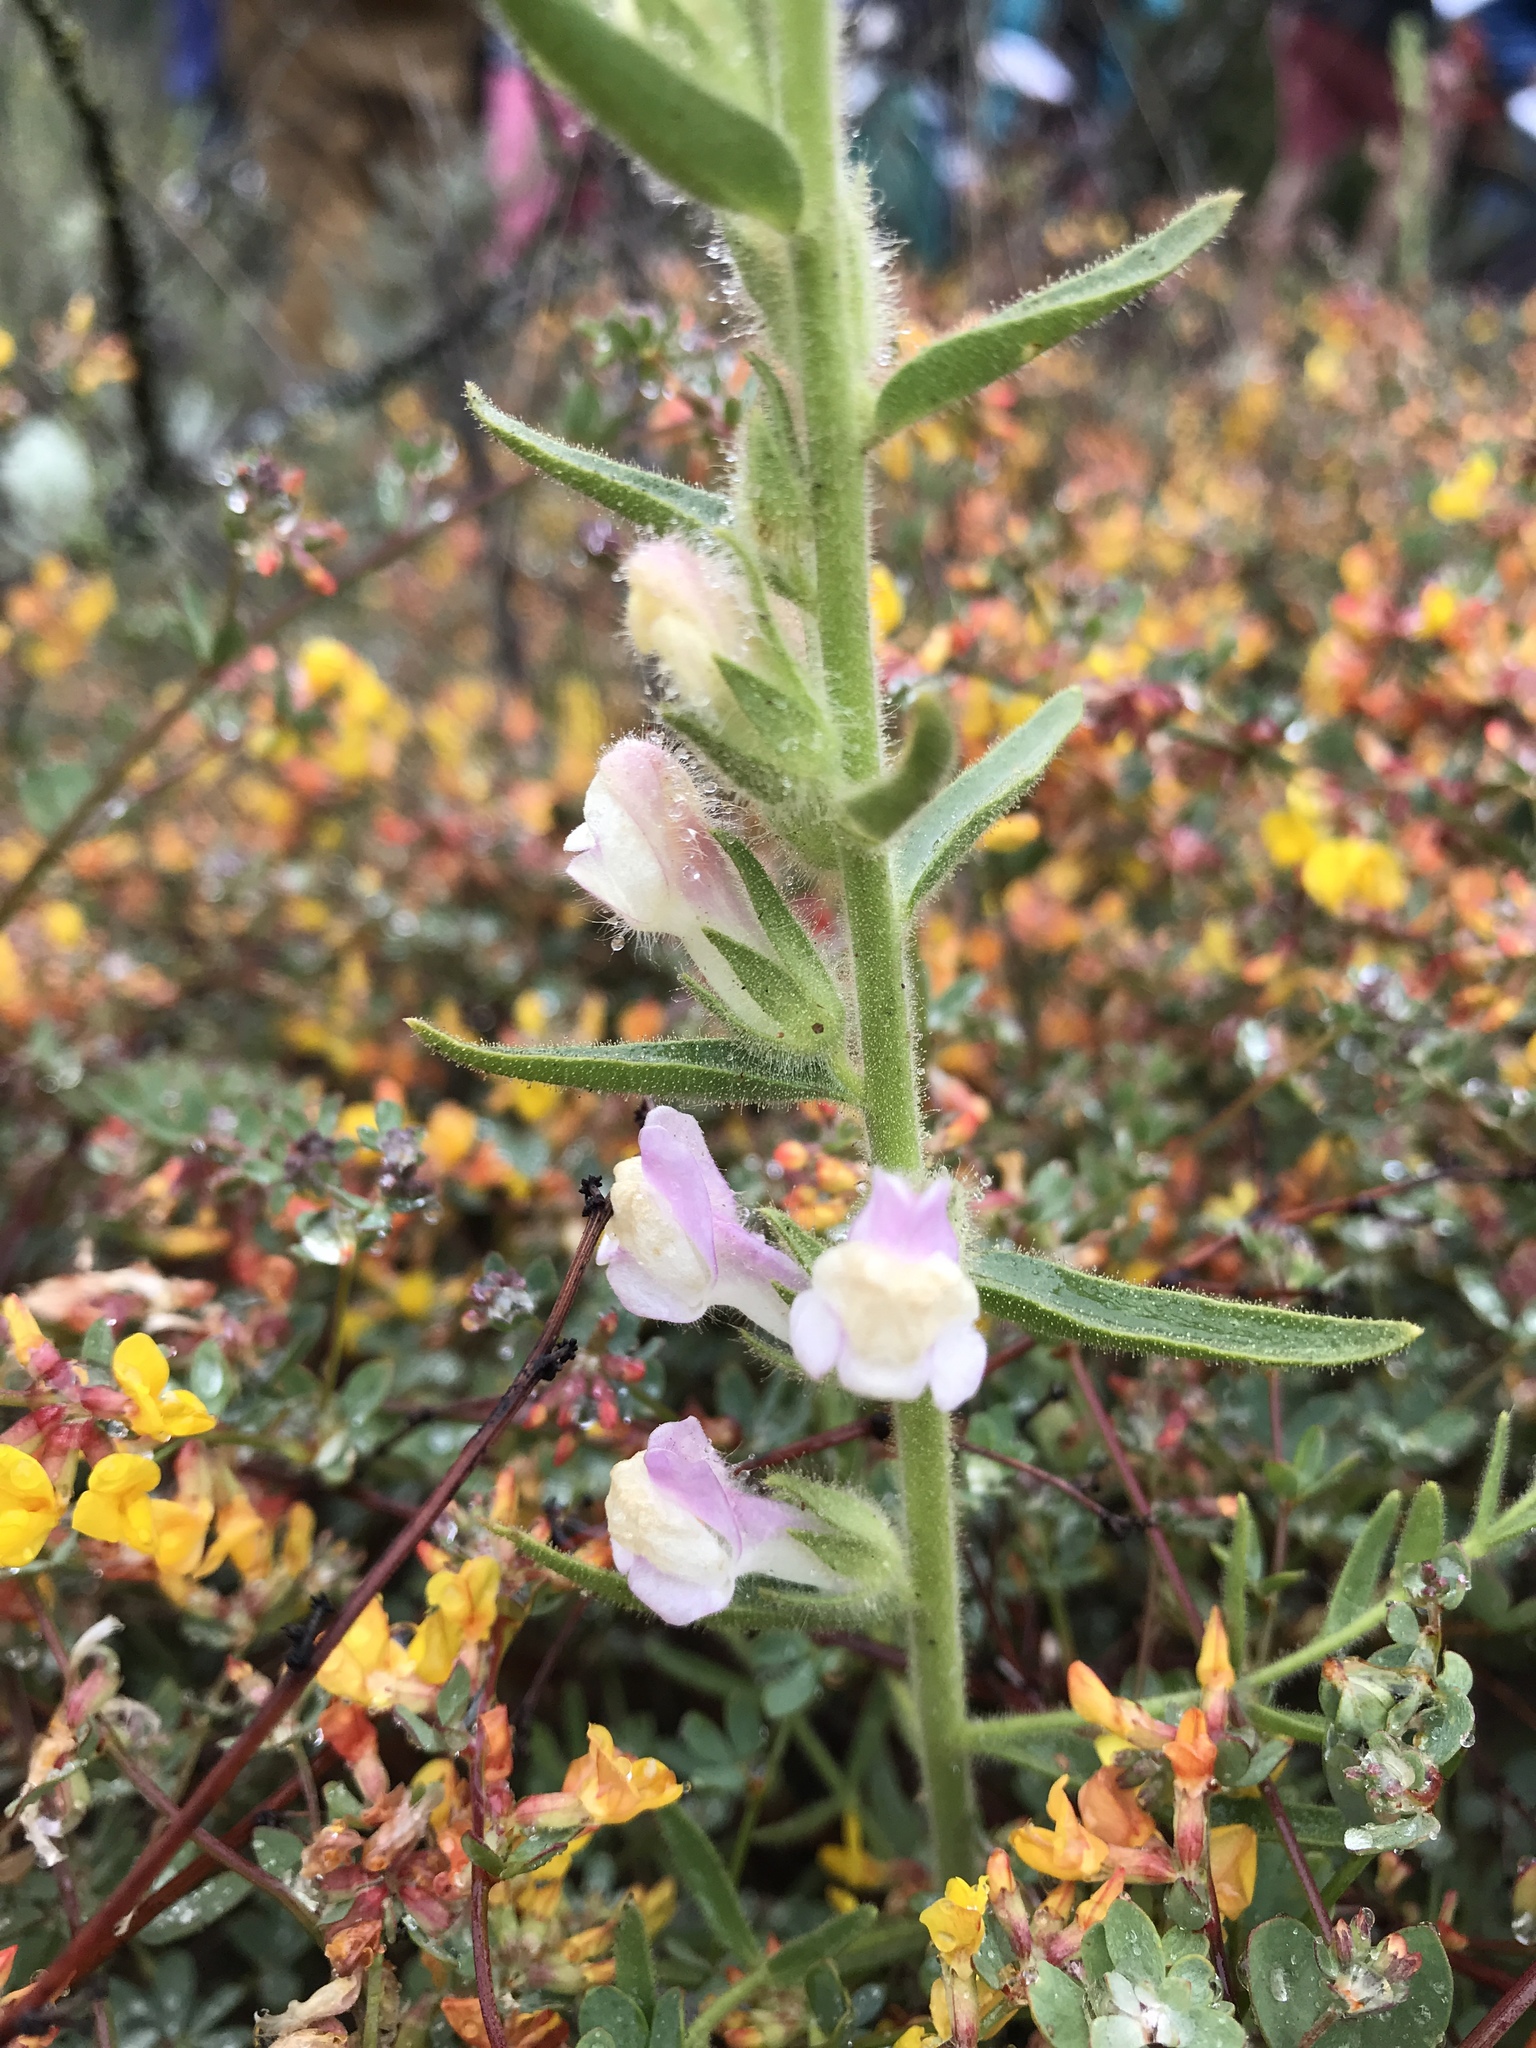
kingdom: Plantae
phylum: Tracheophyta
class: Magnoliopsida
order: Lamiales
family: Plantaginaceae
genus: Sairocarpus
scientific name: Sairocarpus multiflorus
